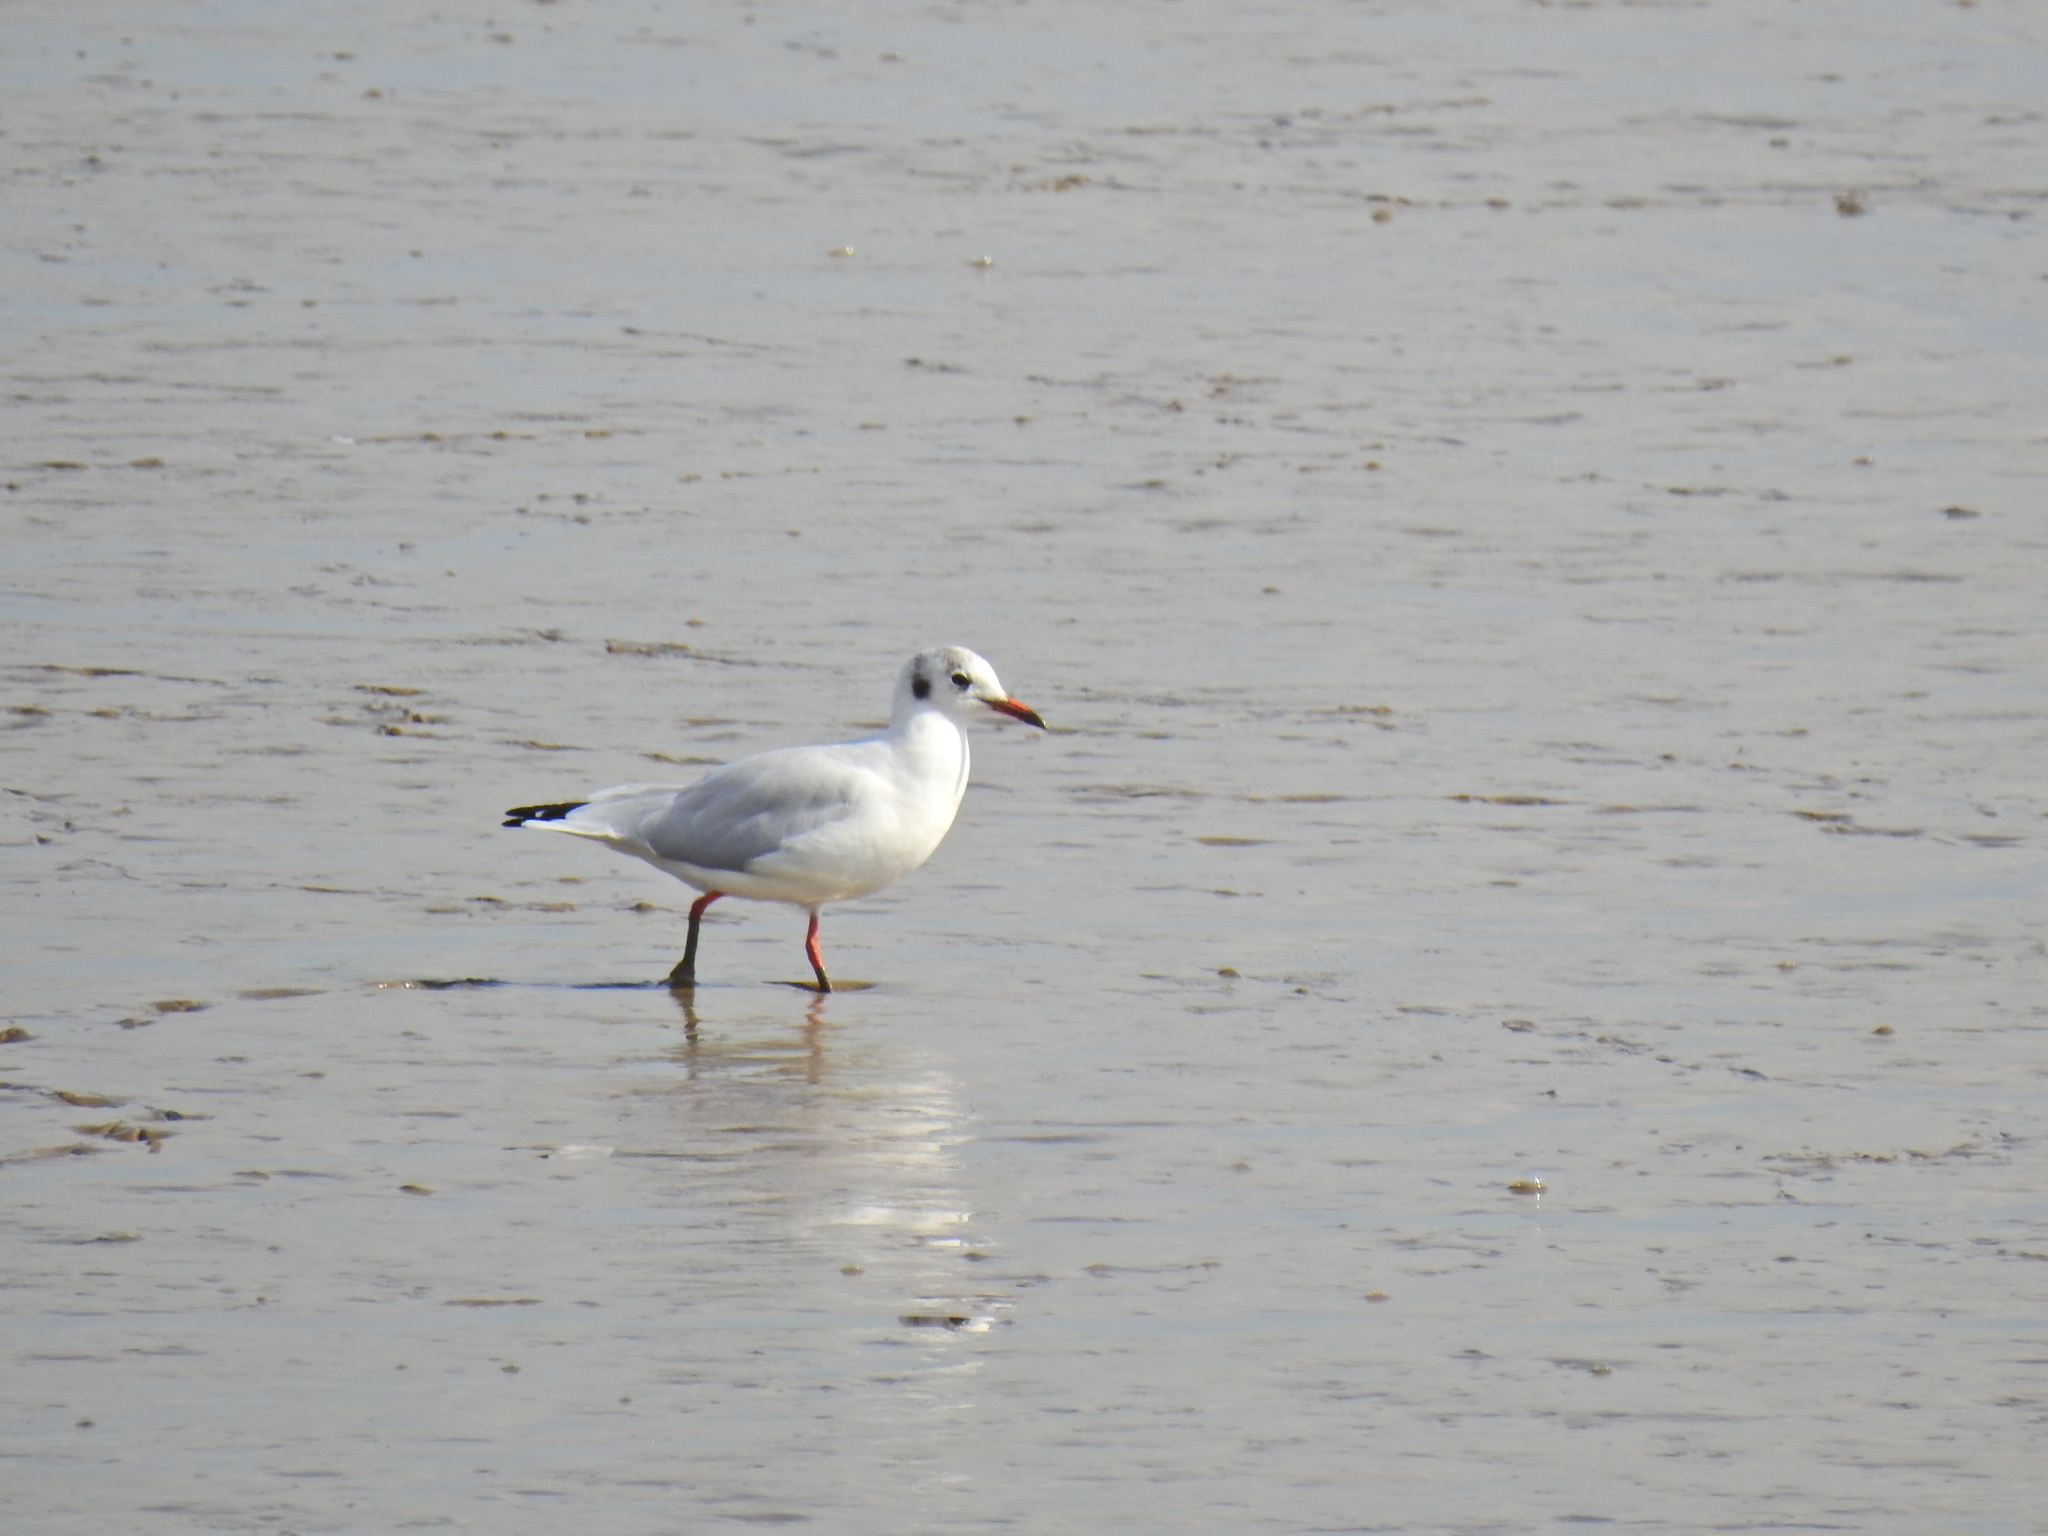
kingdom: Animalia
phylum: Chordata
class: Aves
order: Charadriiformes
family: Laridae
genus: Chroicocephalus
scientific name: Chroicocephalus ridibundus
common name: Black-headed gull
